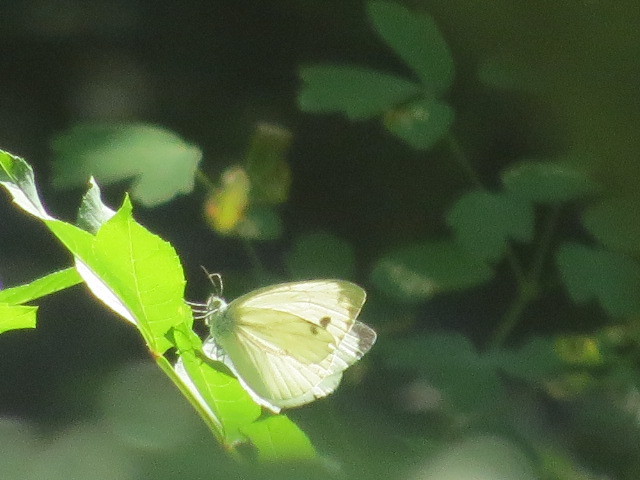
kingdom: Animalia
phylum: Arthropoda
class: Insecta
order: Lepidoptera
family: Pieridae
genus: Pieris
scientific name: Pieris napi
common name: Green-veined white
